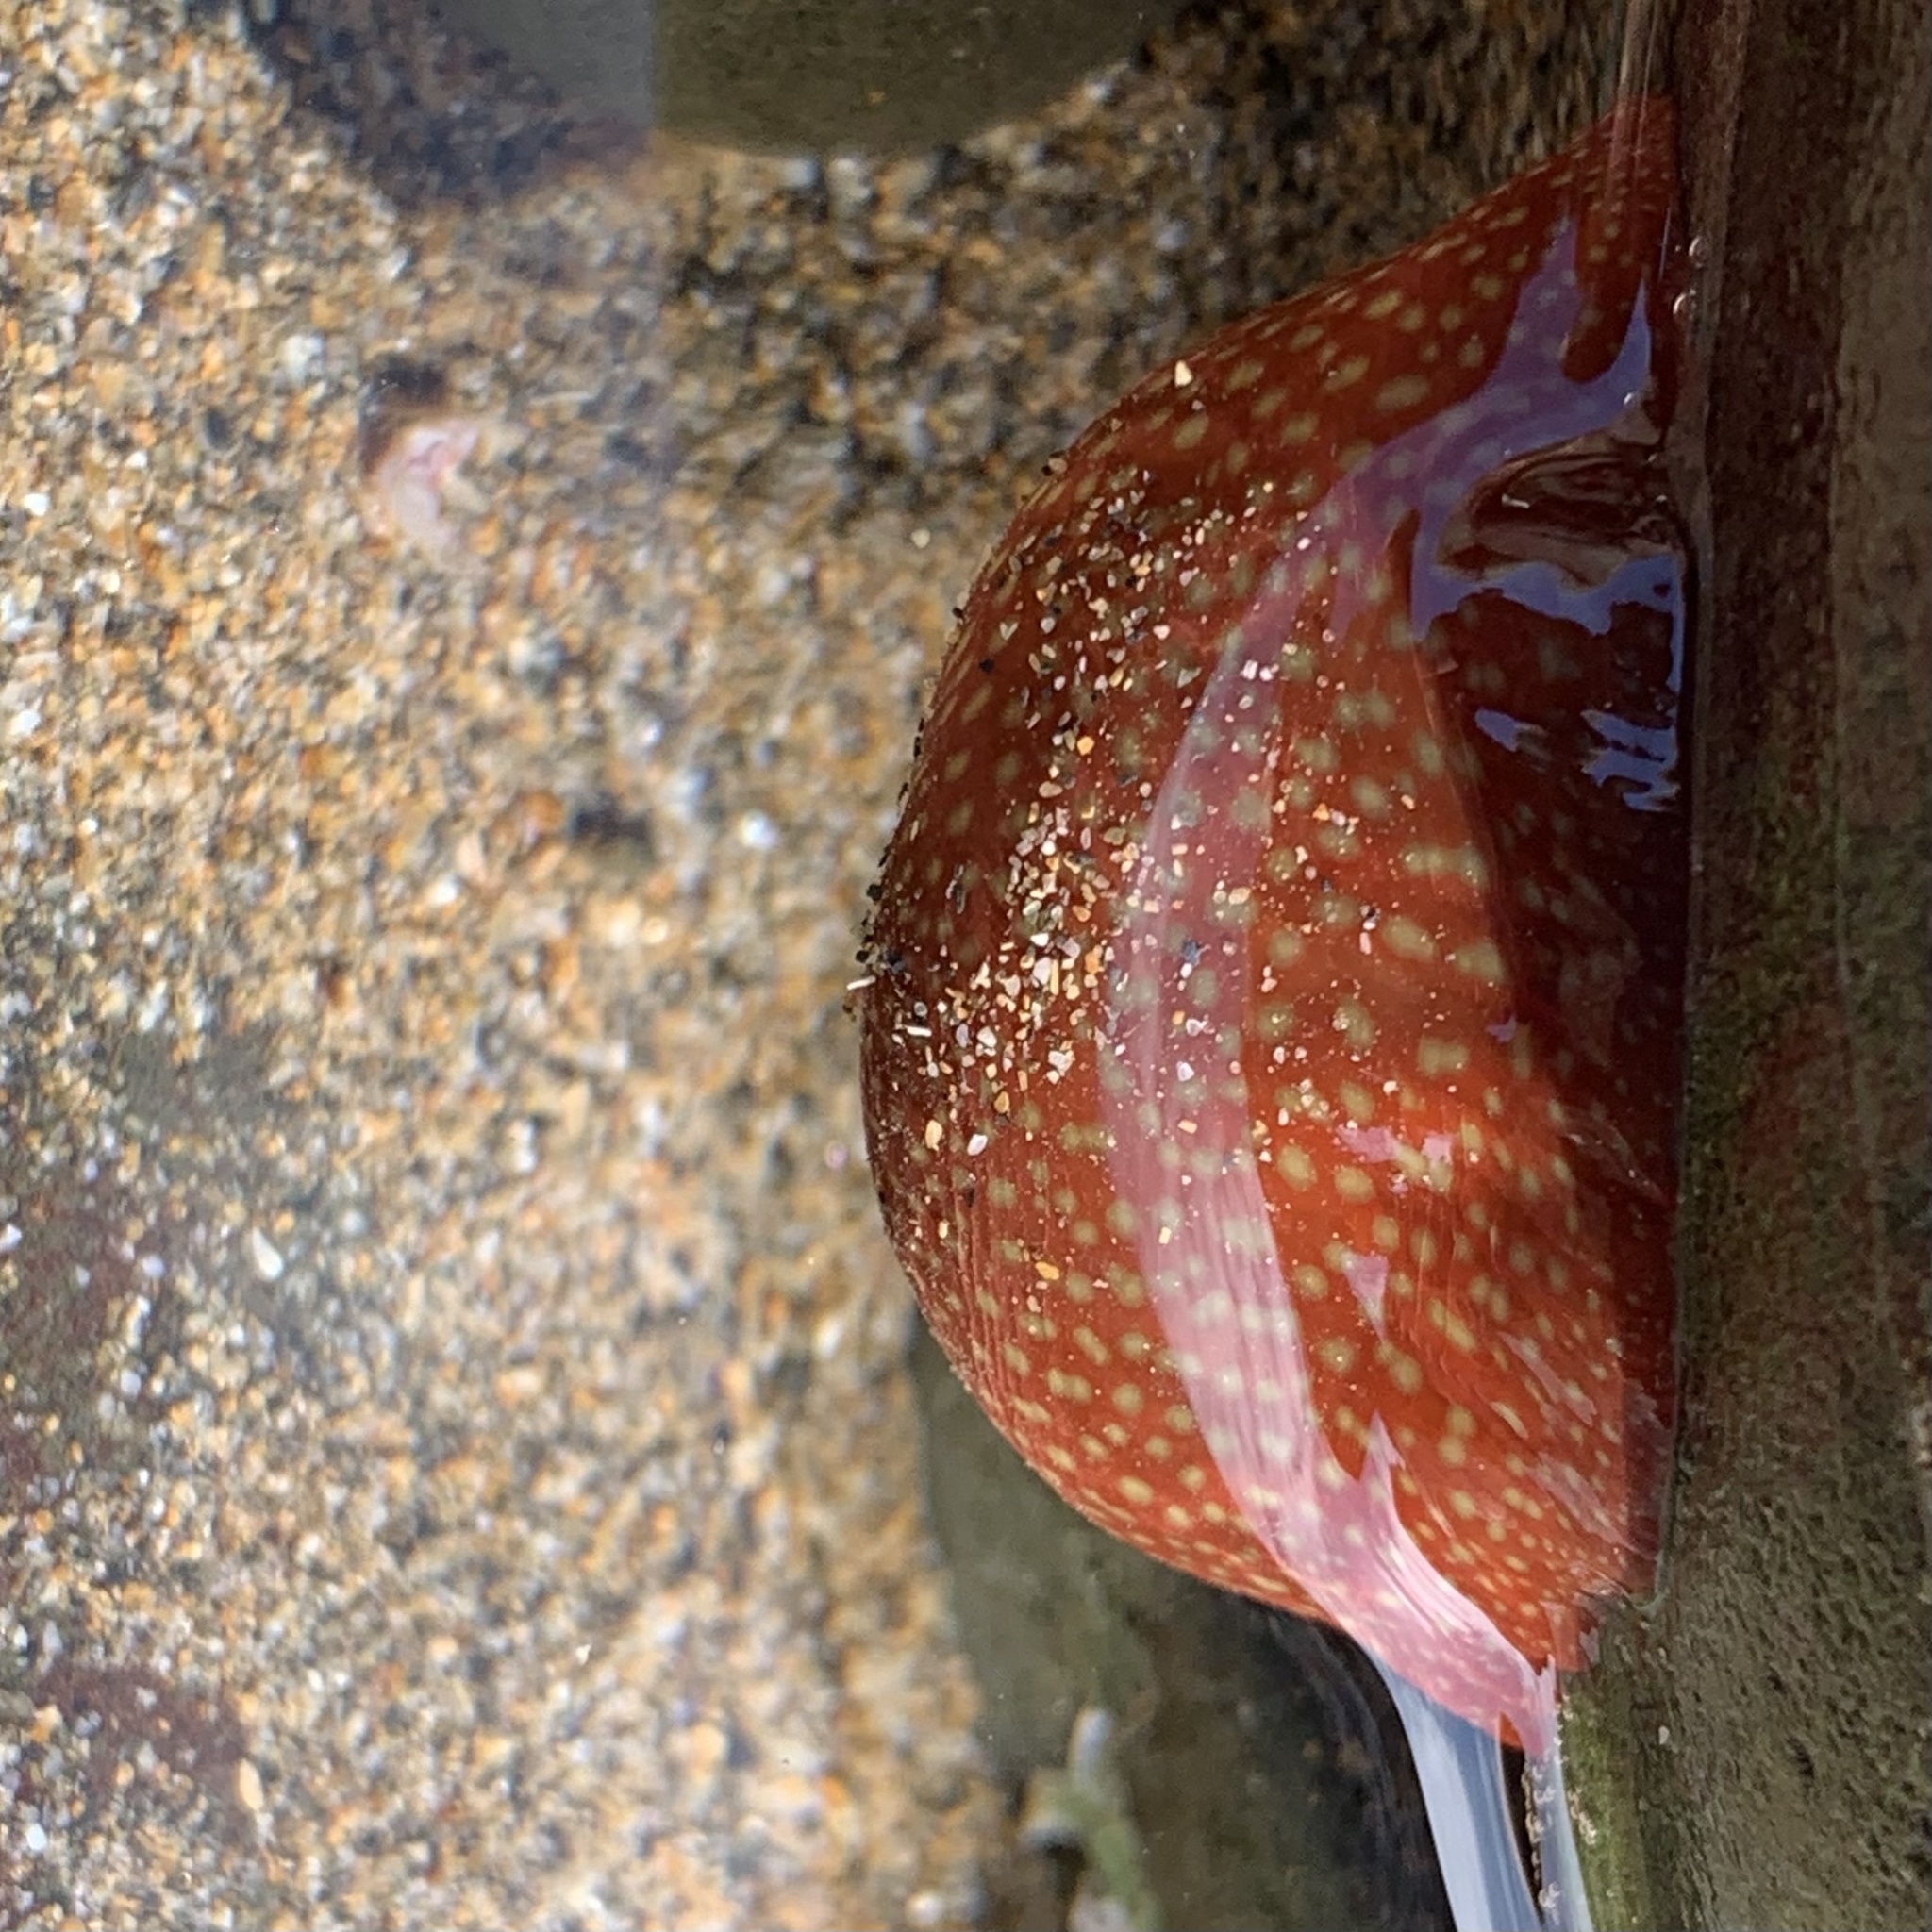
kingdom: Animalia
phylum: Cnidaria
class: Anthozoa
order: Actiniaria
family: Actiniidae
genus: Actinia
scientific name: Actinia fragacea
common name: Strawberry anemone
